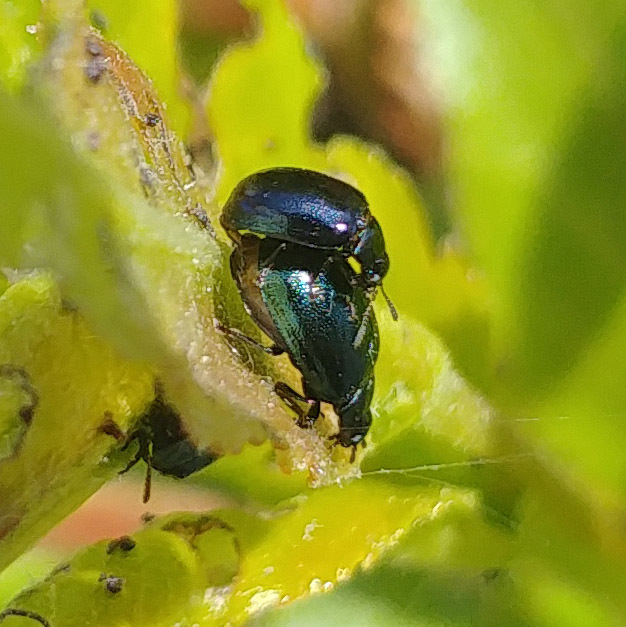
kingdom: Animalia
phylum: Arthropoda
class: Insecta
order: Coleoptera
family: Chrysomelidae
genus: Plagiodera
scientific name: Plagiodera versicolora
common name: Imported willow leaf beetle
